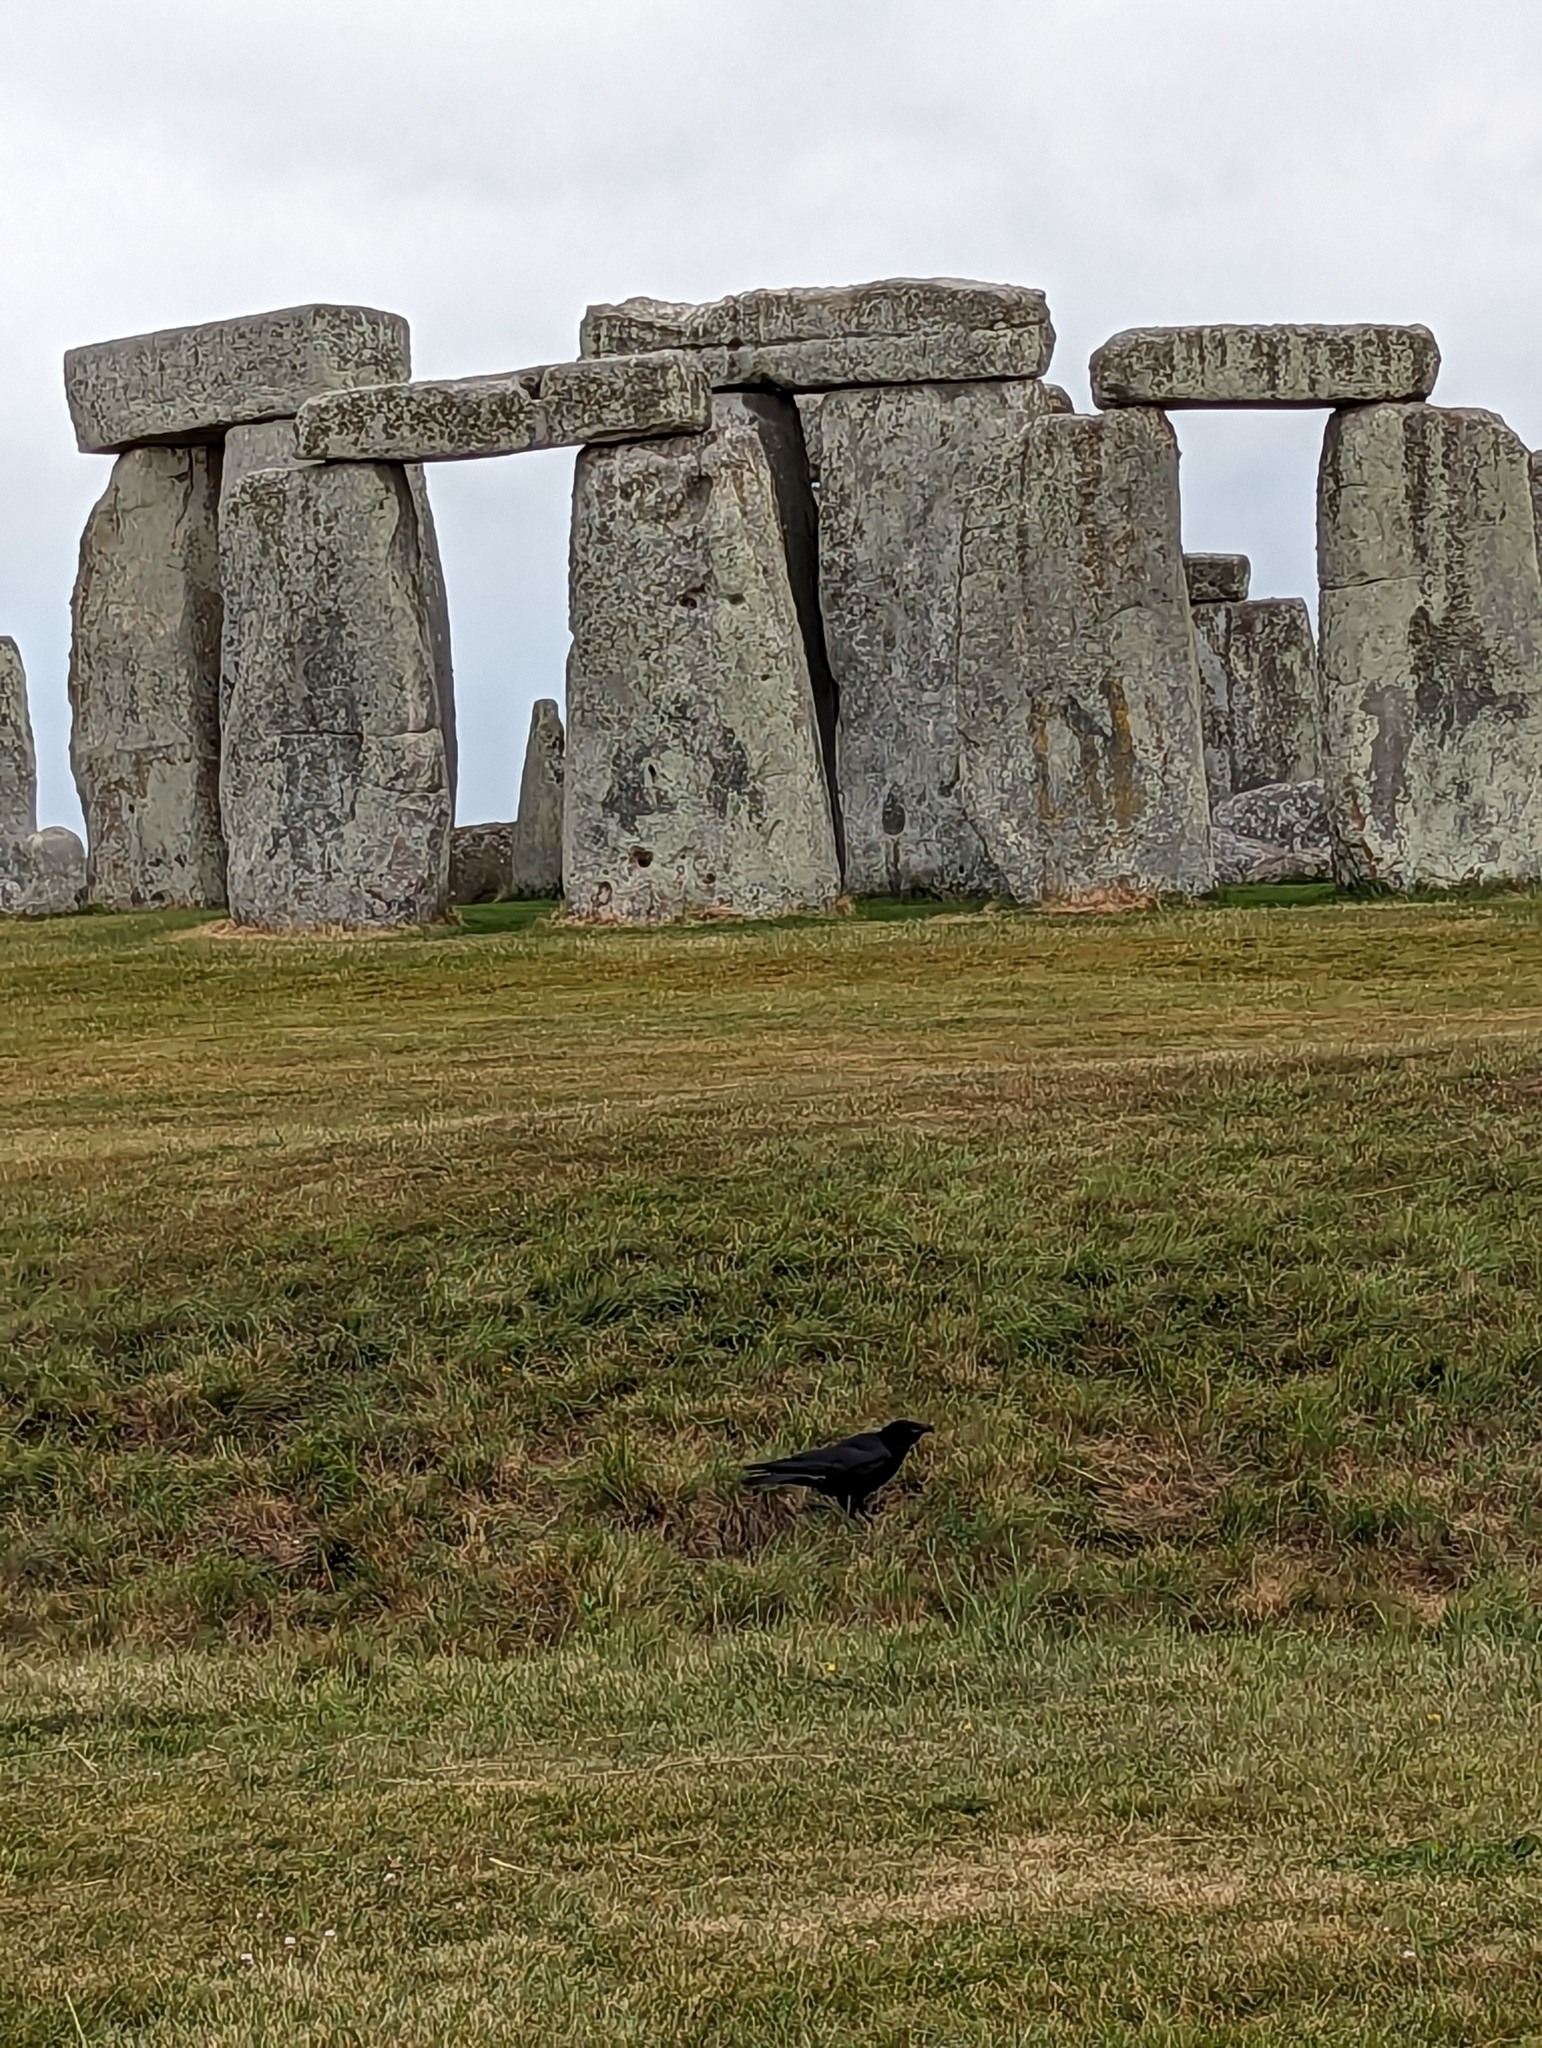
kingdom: Animalia
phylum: Chordata
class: Aves
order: Passeriformes
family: Corvidae
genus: Corvus
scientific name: Corvus corone
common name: Carrion crow
